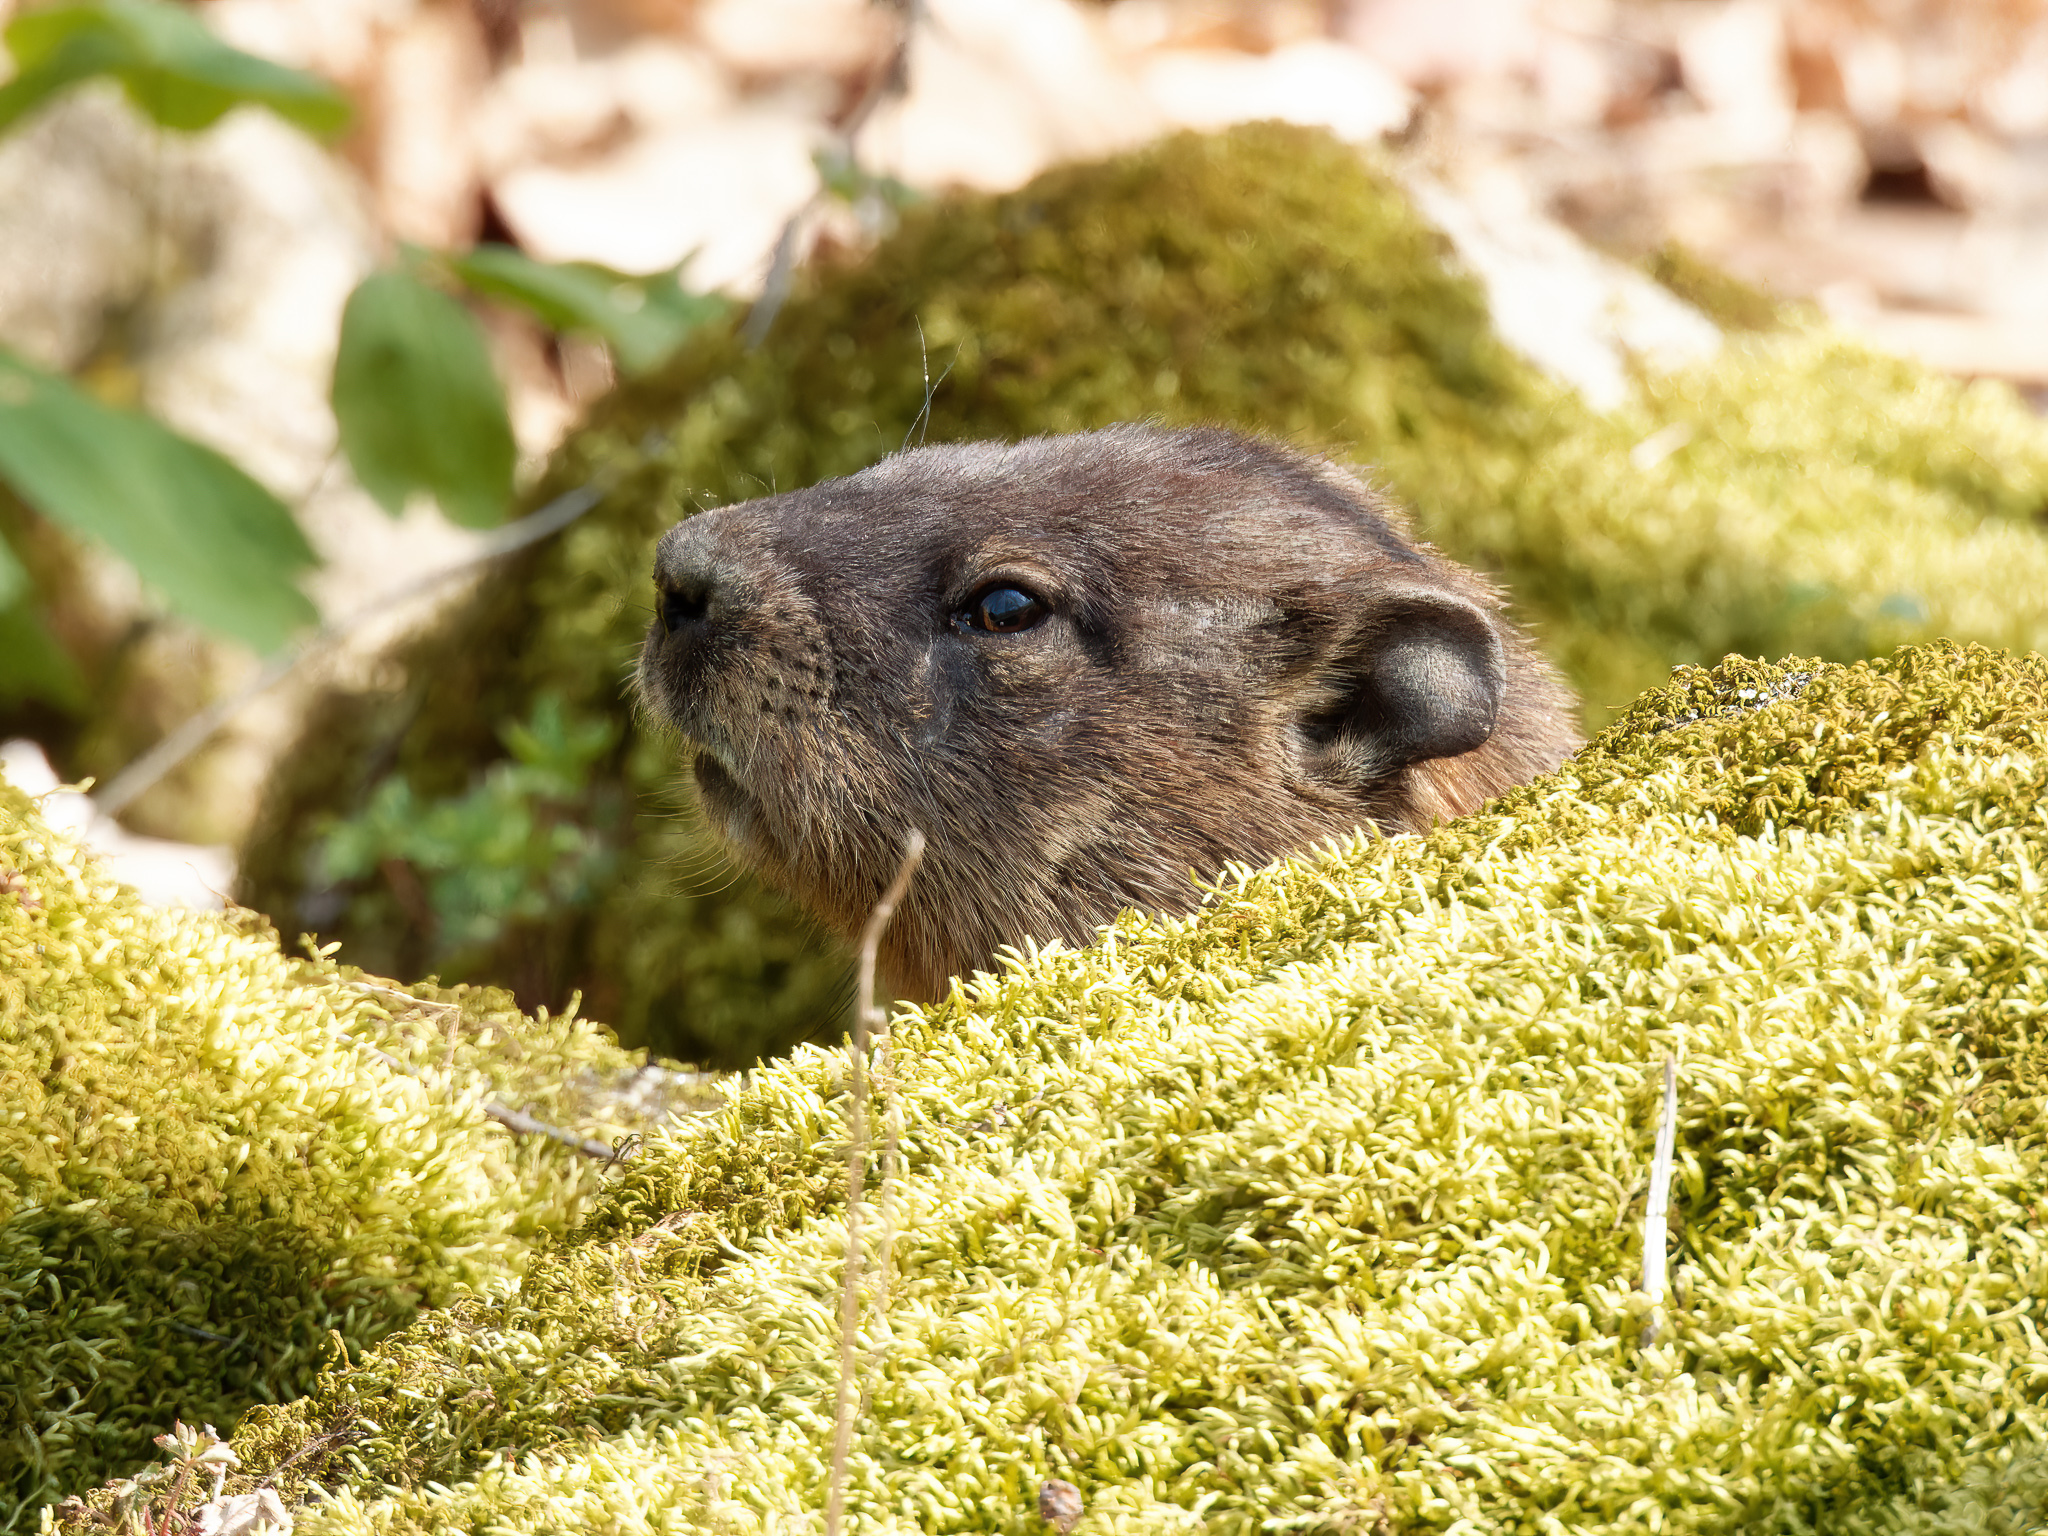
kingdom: Animalia
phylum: Chordata
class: Mammalia
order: Rodentia
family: Sciuridae
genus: Marmota
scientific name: Marmota monax
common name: Groundhog
